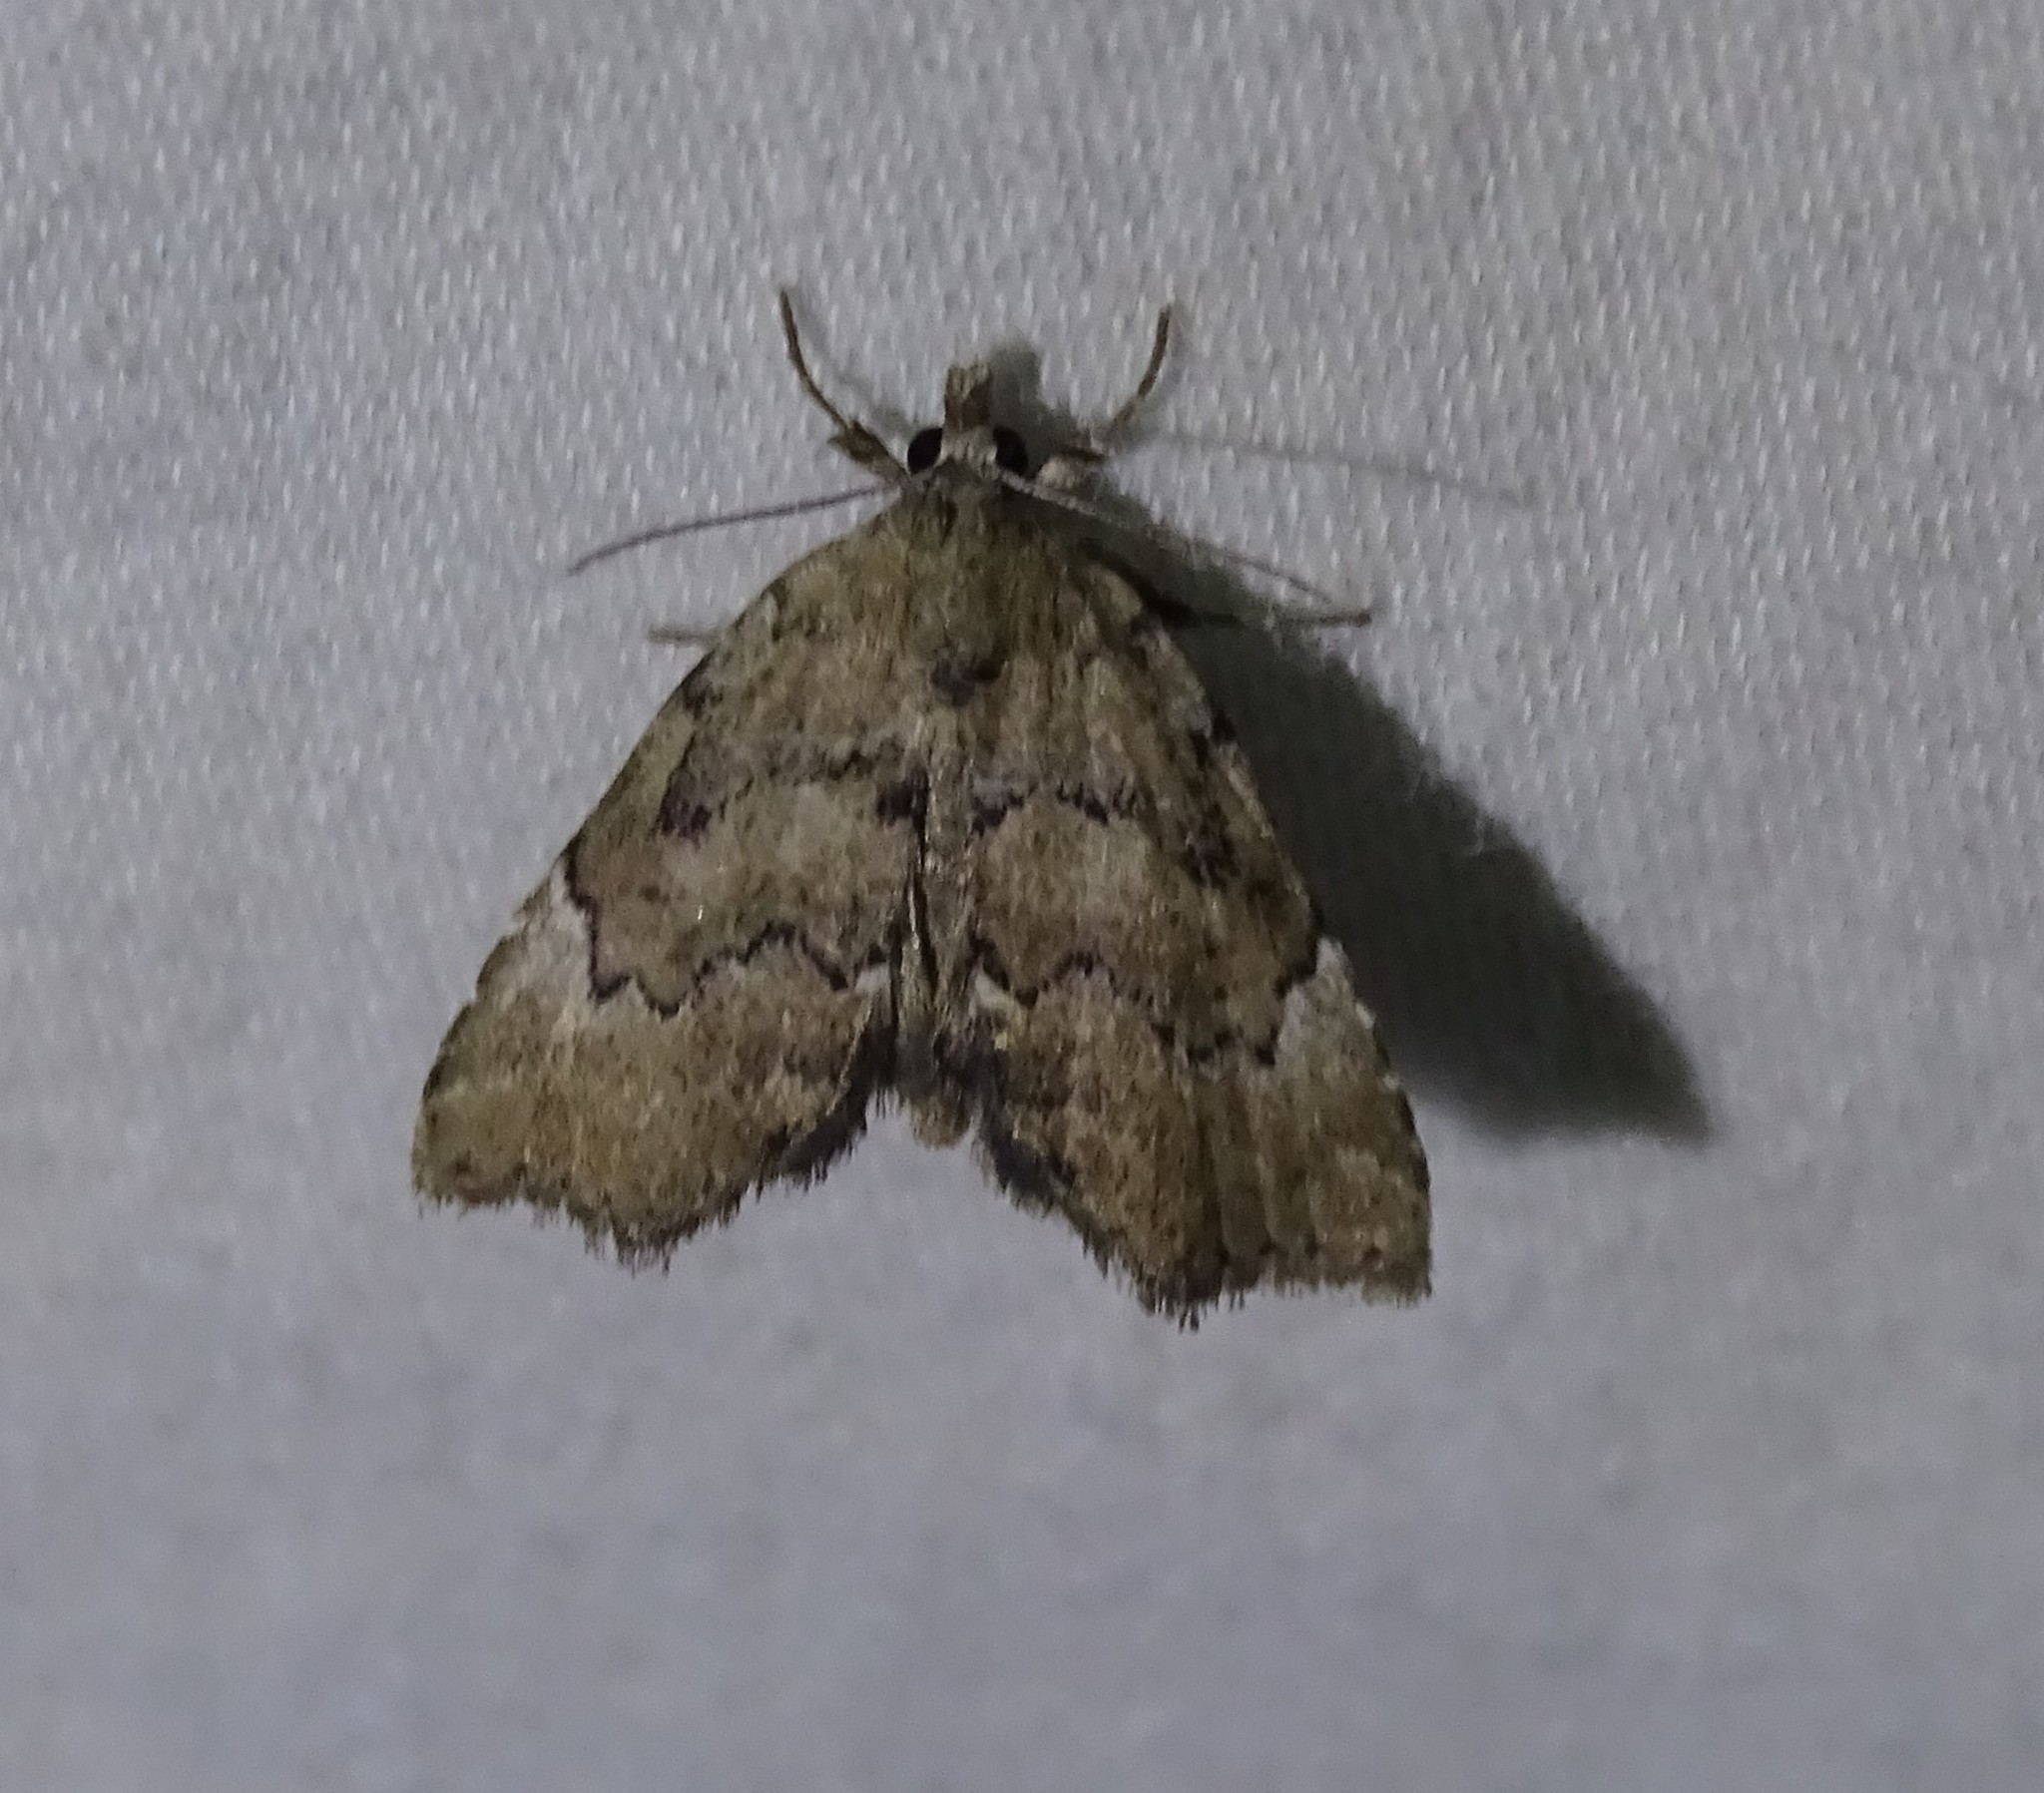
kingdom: Animalia
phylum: Arthropoda
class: Insecta
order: Lepidoptera
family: Erebidae
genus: Cutina
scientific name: Cutina aluticolor
